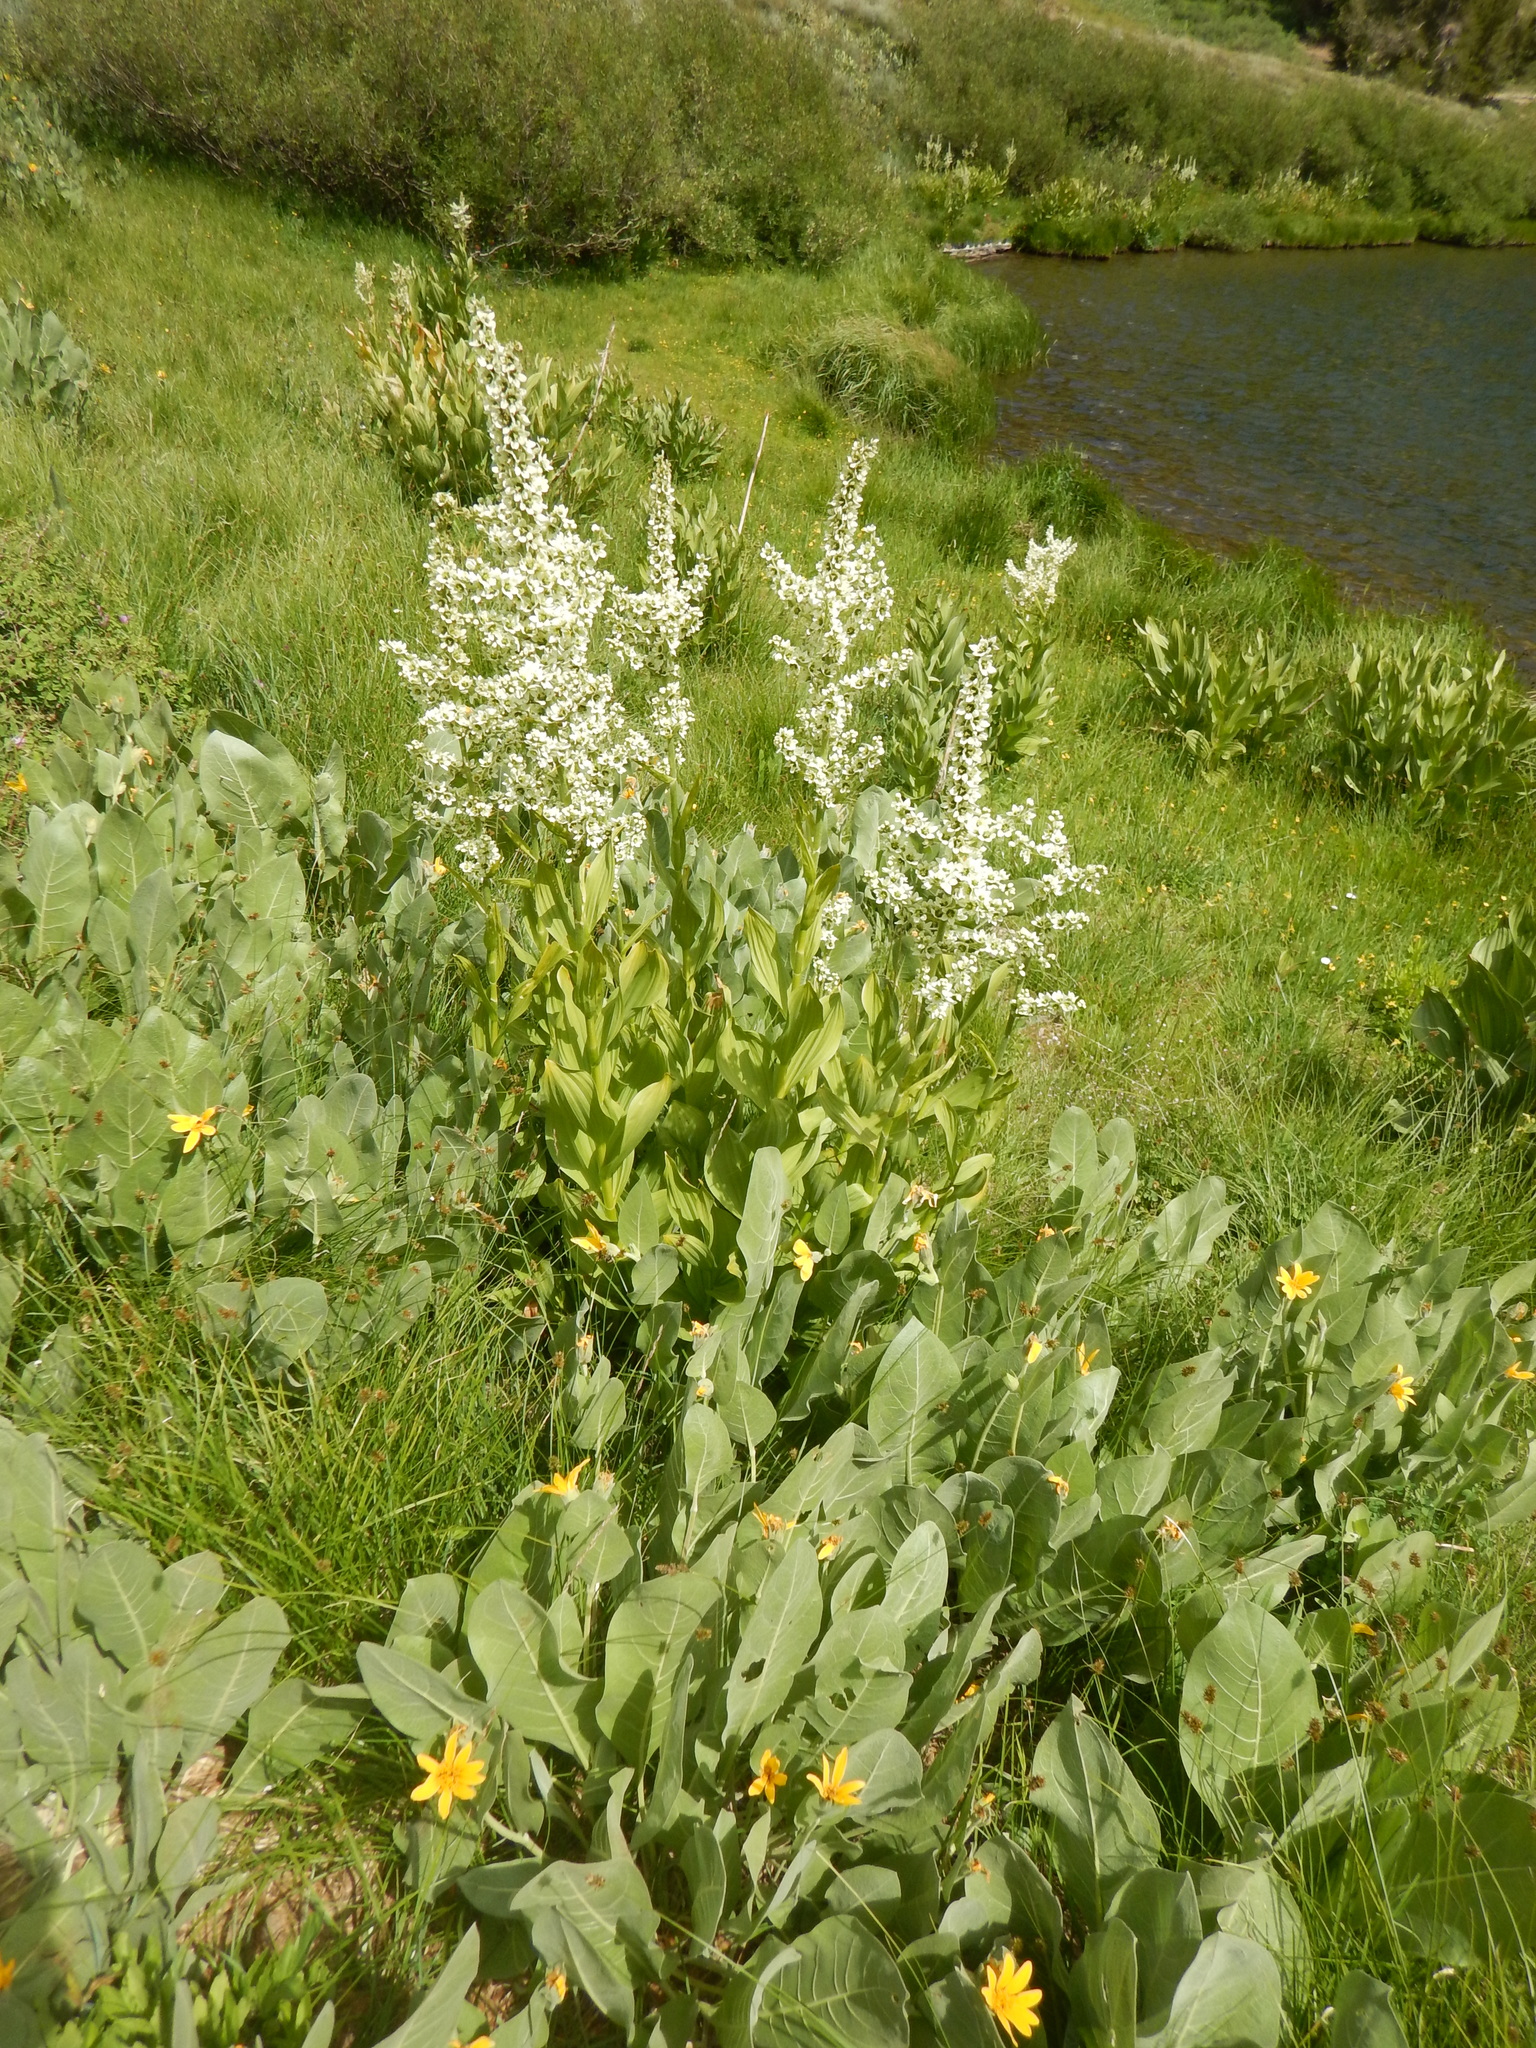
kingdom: Plantae
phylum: Tracheophyta
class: Liliopsida
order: Liliales
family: Melanthiaceae
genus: Veratrum
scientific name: Veratrum californicum
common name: California veratrum
